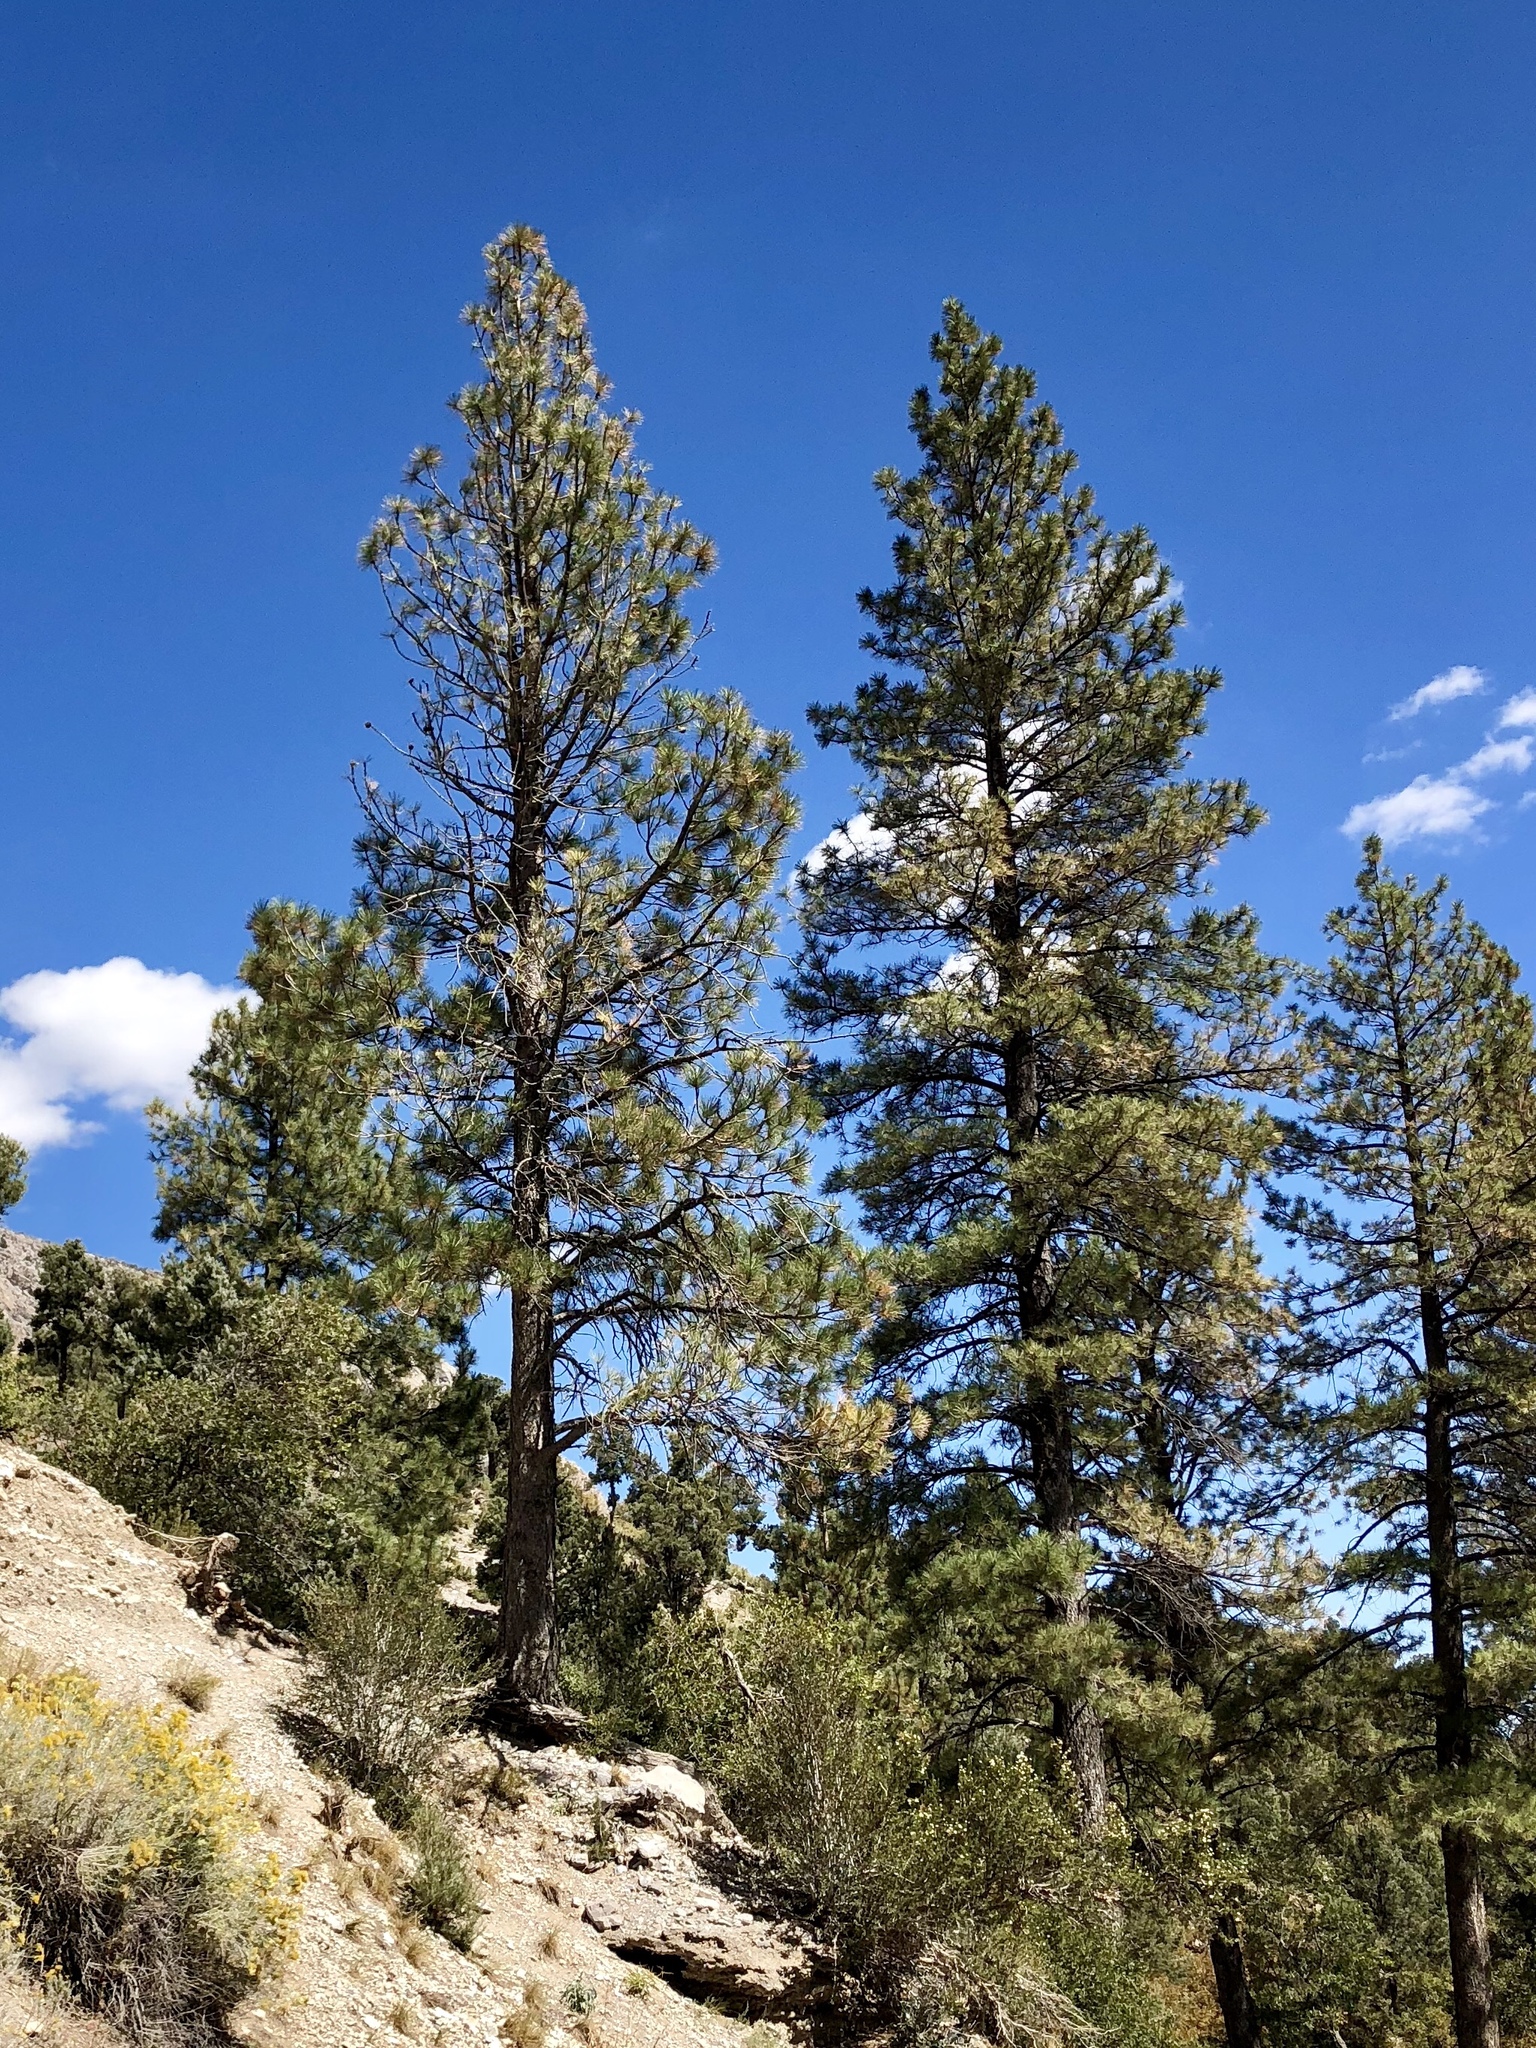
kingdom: Plantae
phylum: Tracheophyta
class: Pinopsida
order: Pinales
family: Pinaceae
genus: Pinus
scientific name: Pinus ponderosa
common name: Western yellow-pine
